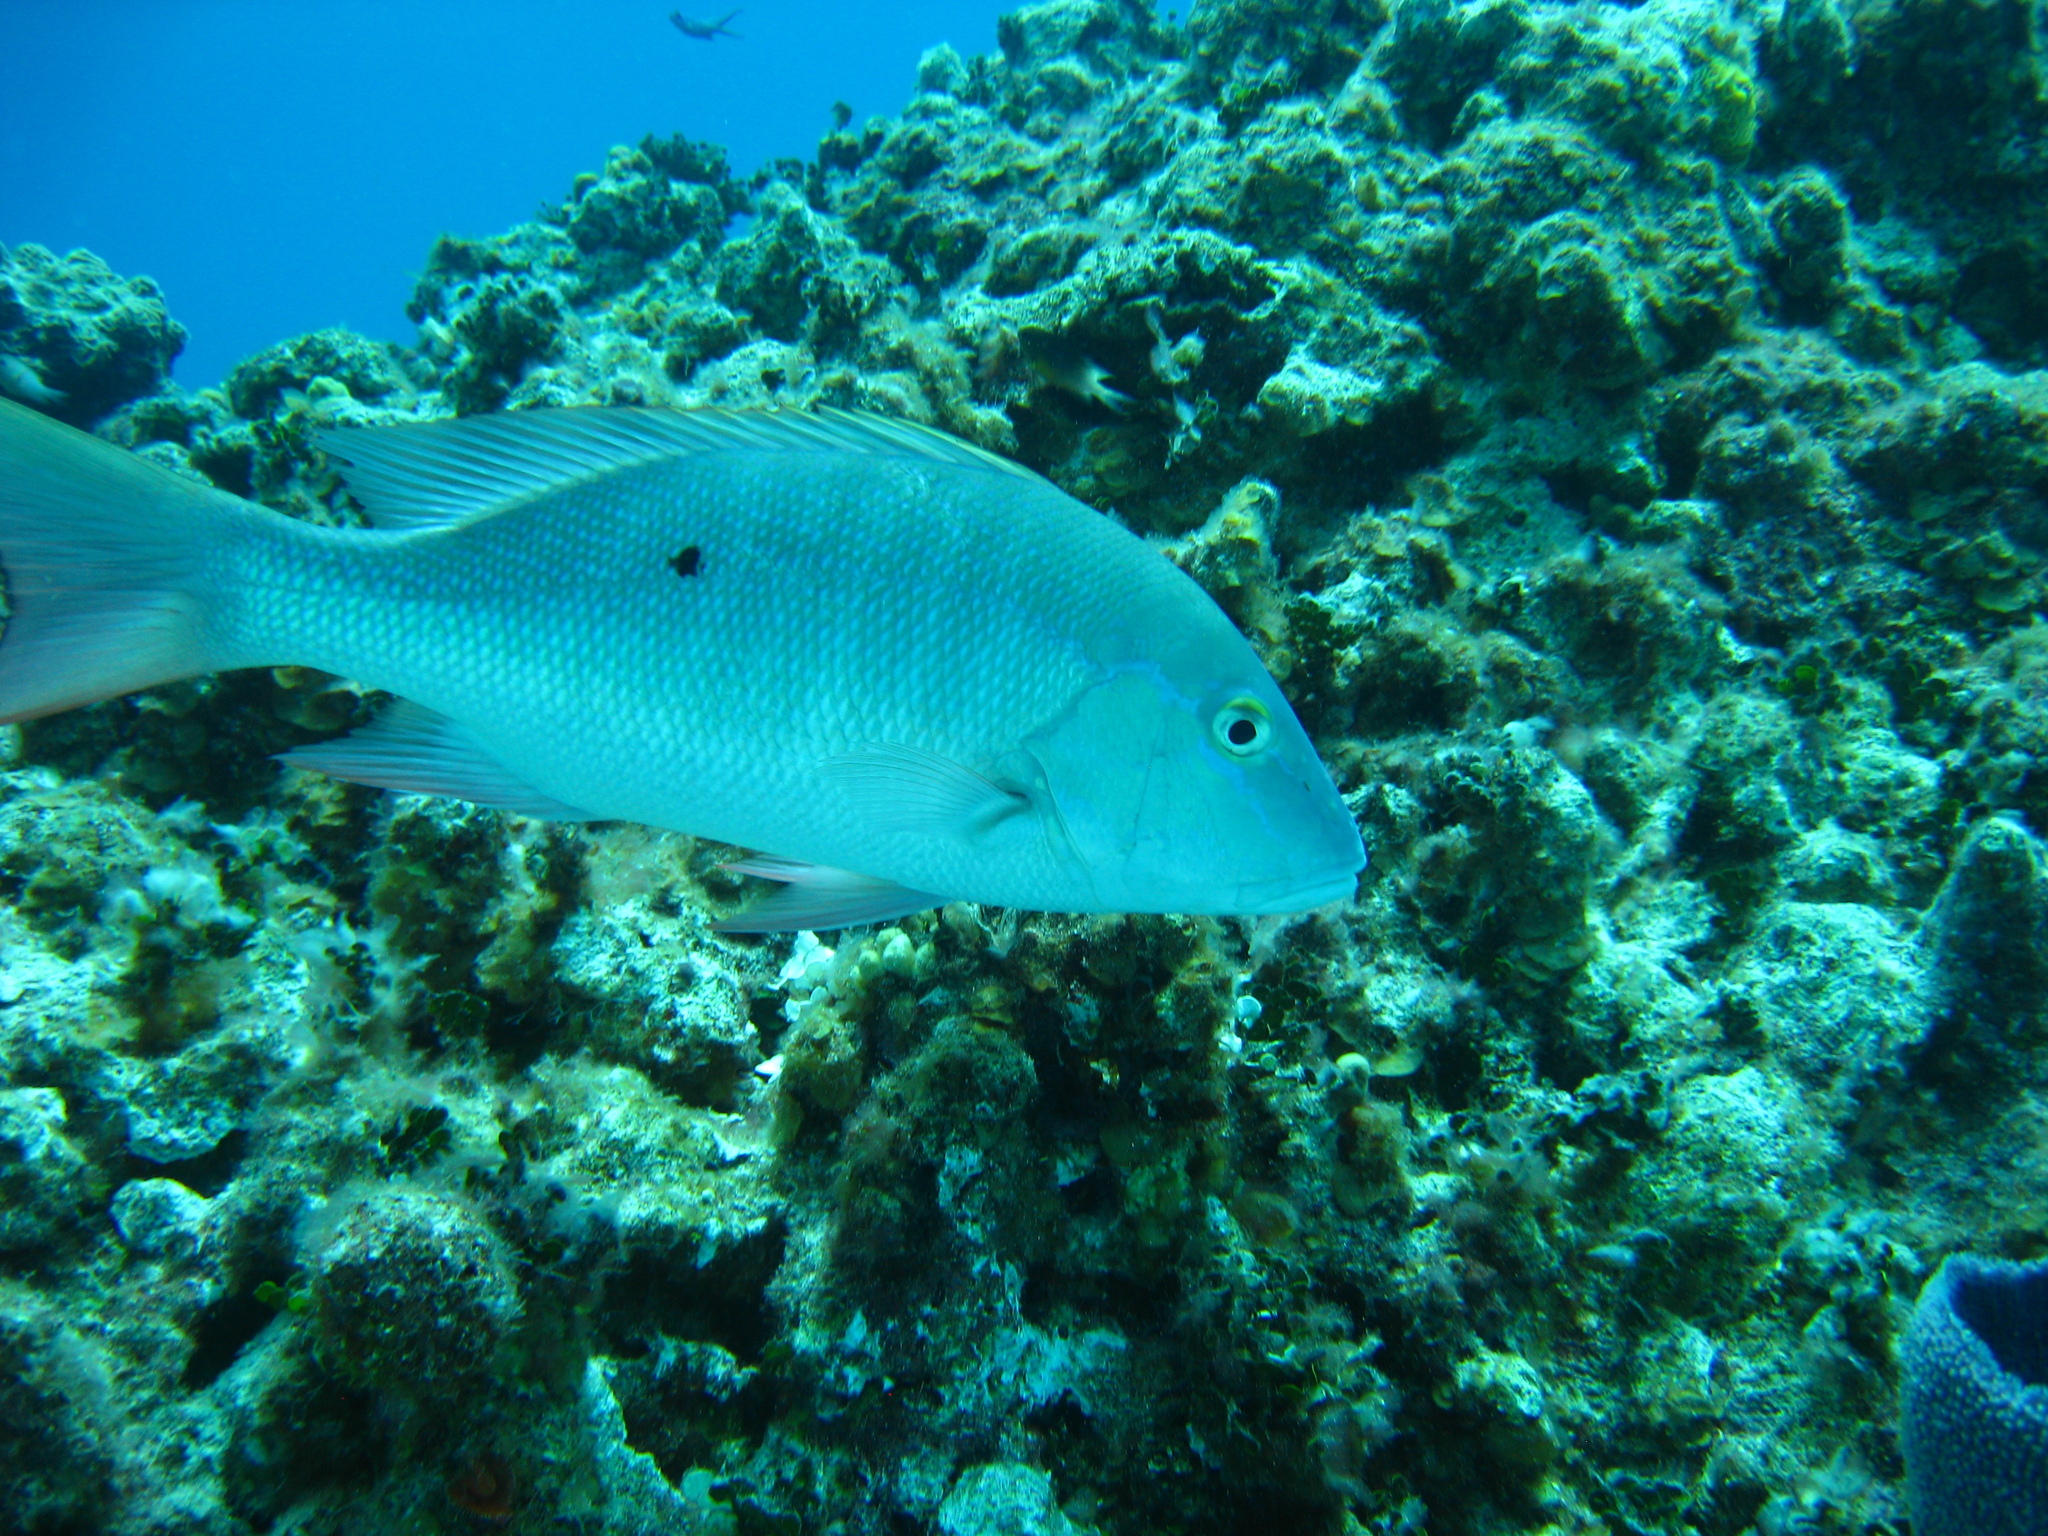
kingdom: Animalia
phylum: Chordata
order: Perciformes
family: Lutjanidae
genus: Lutjanus
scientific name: Lutjanus analis
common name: Mutton snapper
